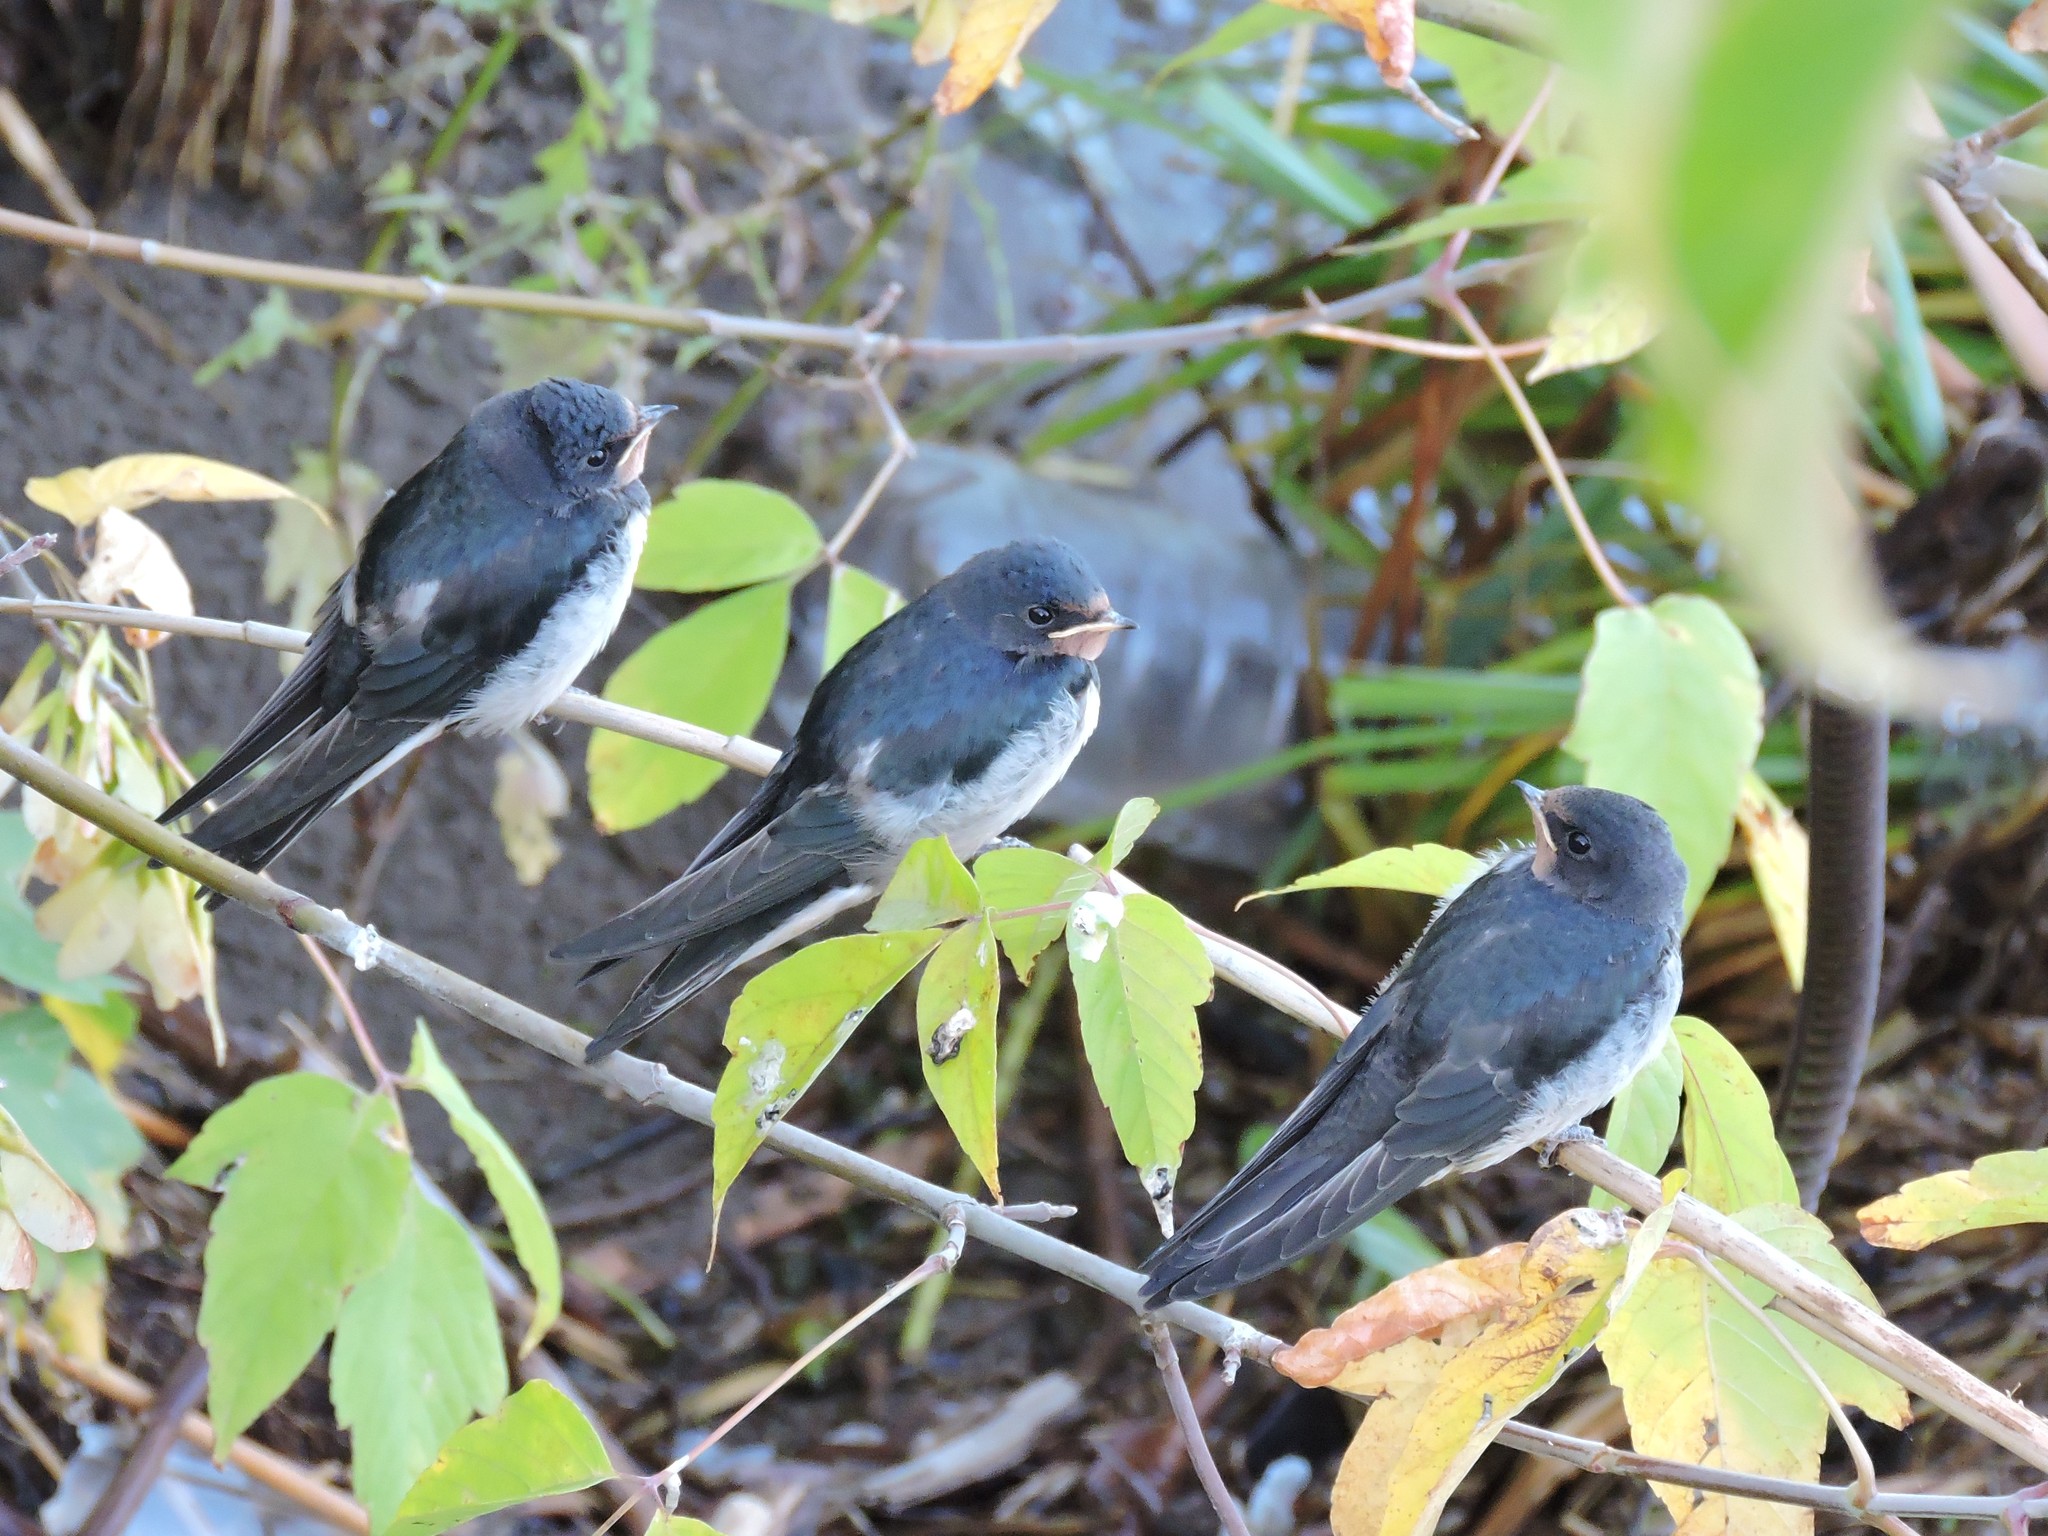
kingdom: Animalia
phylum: Chordata
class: Aves
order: Passeriformes
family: Hirundinidae
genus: Hirundo
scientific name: Hirundo rustica
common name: Barn swallow
